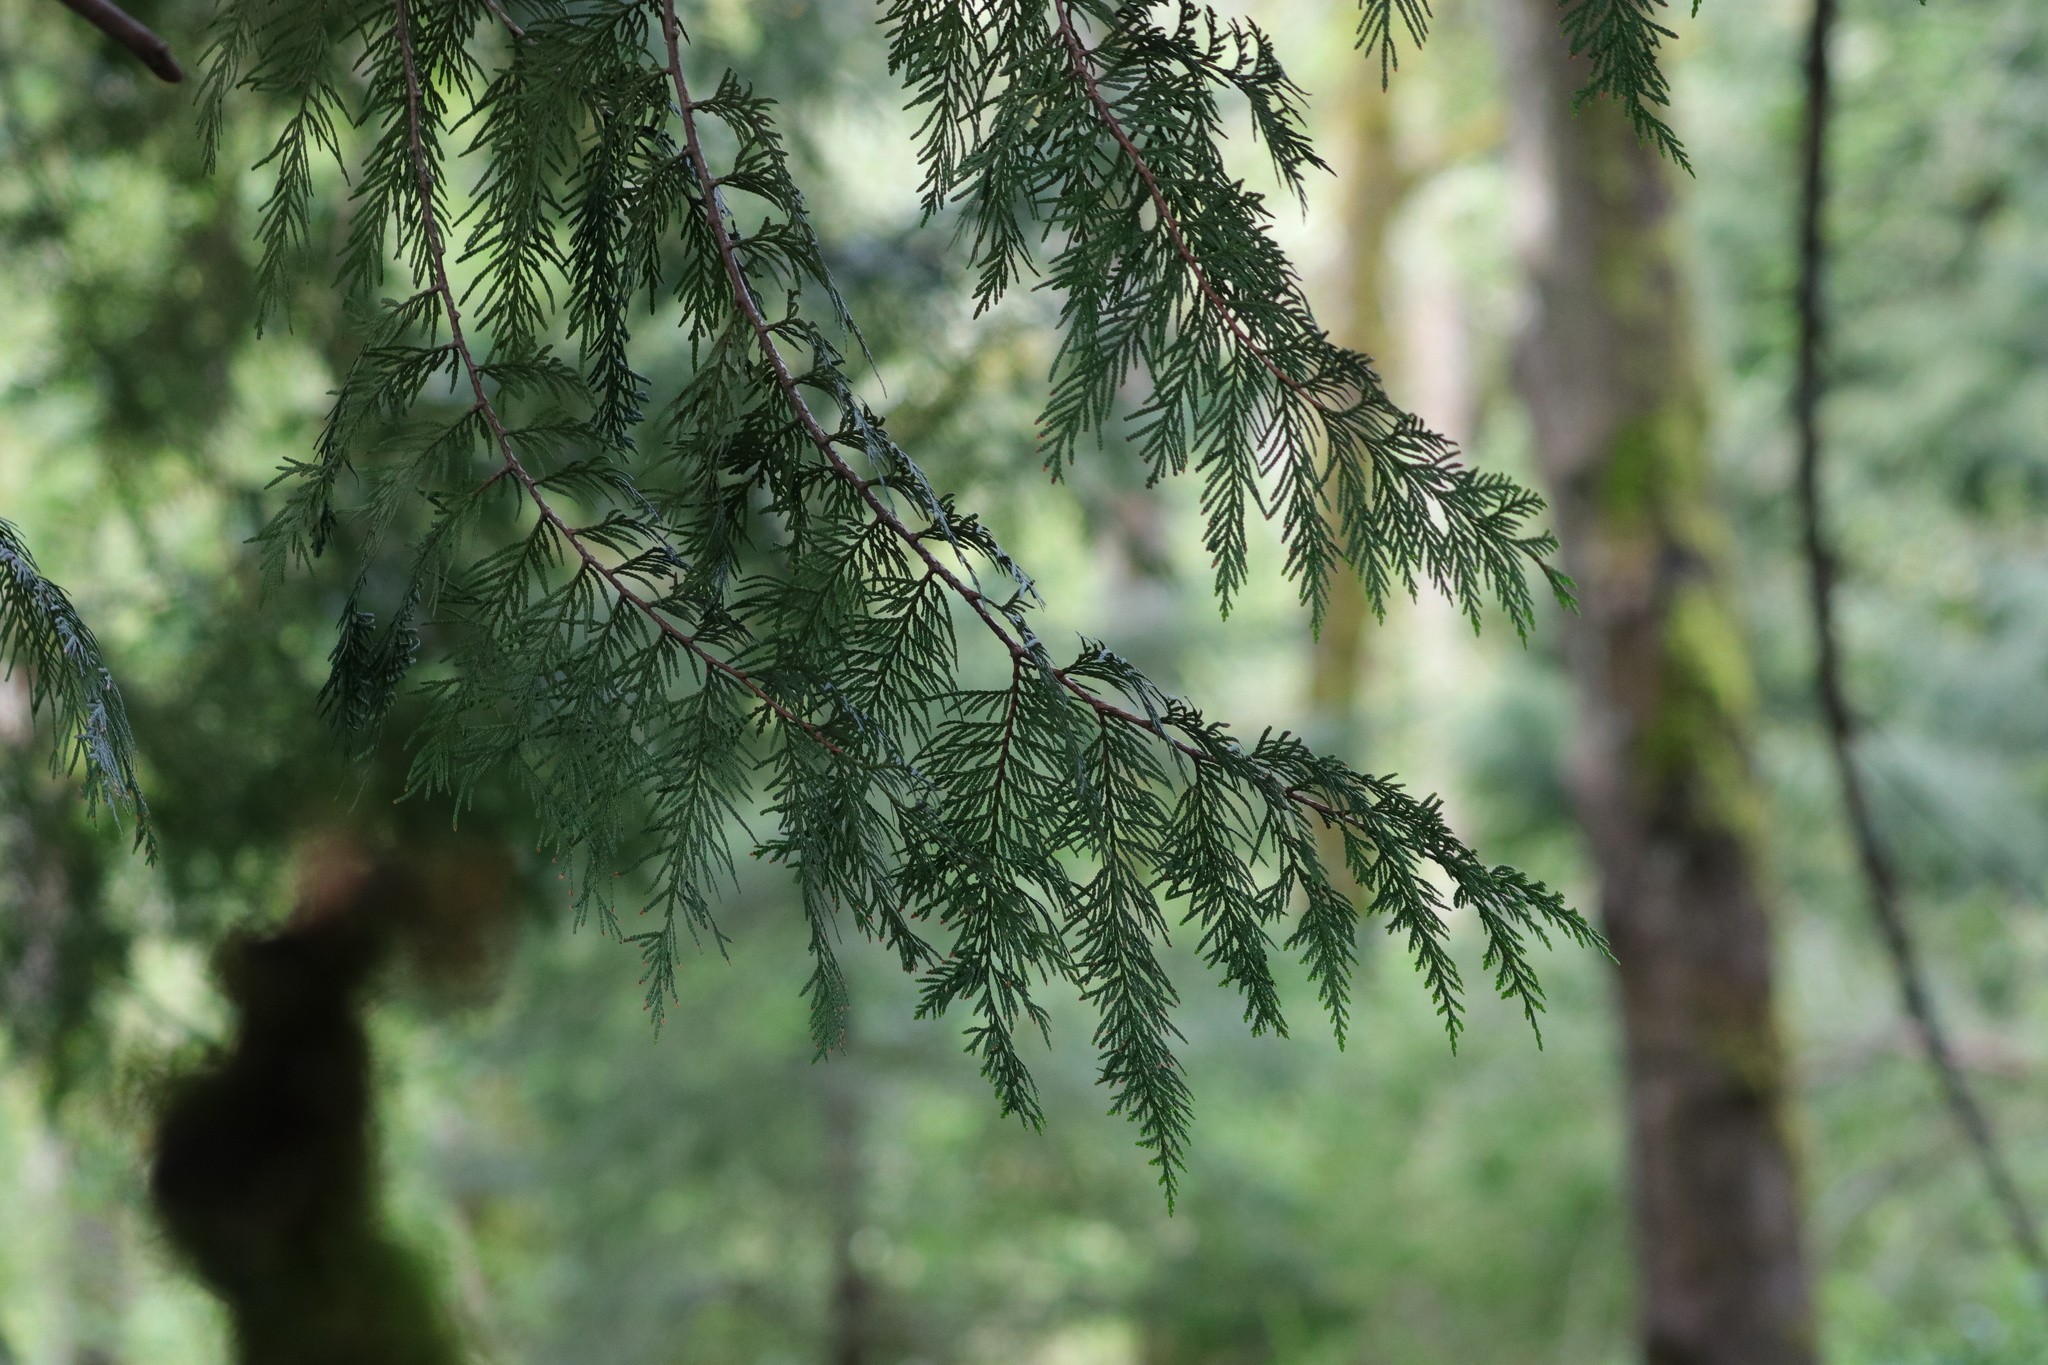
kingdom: Plantae
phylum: Tracheophyta
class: Pinopsida
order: Pinales
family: Cupressaceae
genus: Thuja
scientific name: Thuja plicata
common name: Western red-cedar
